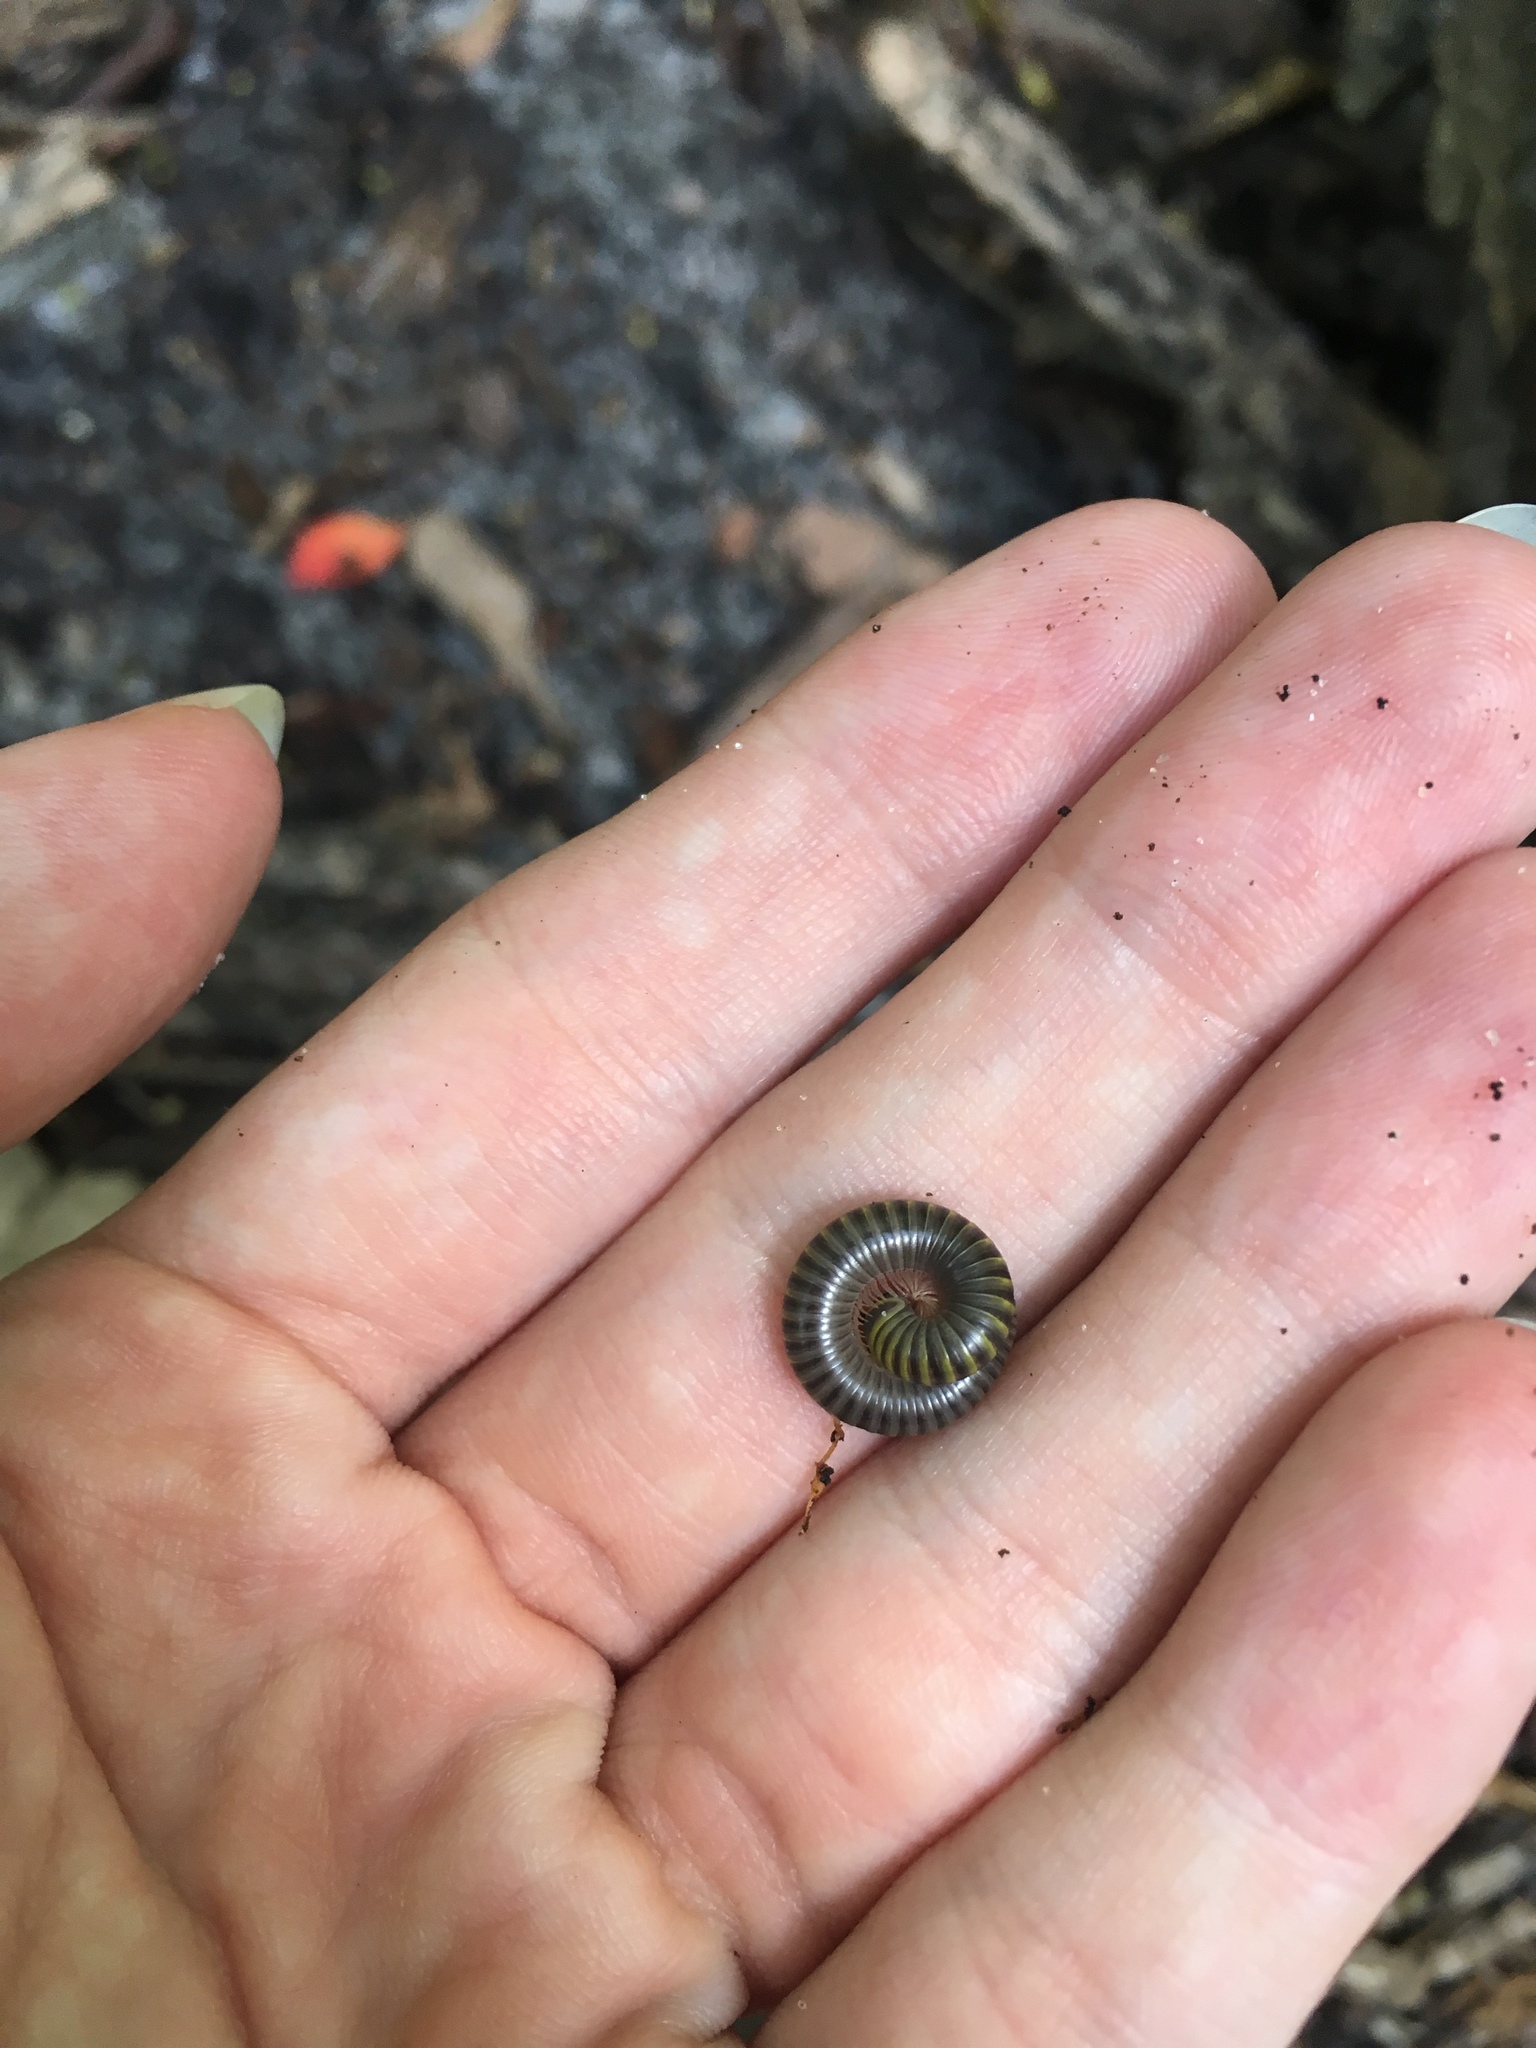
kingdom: Animalia
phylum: Arthropoda
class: Diplopoda
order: Spirobolida
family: Rhinocricidae
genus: Anadenobolus
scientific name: Anadenobolus monilicornis
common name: Caribbean millipede
